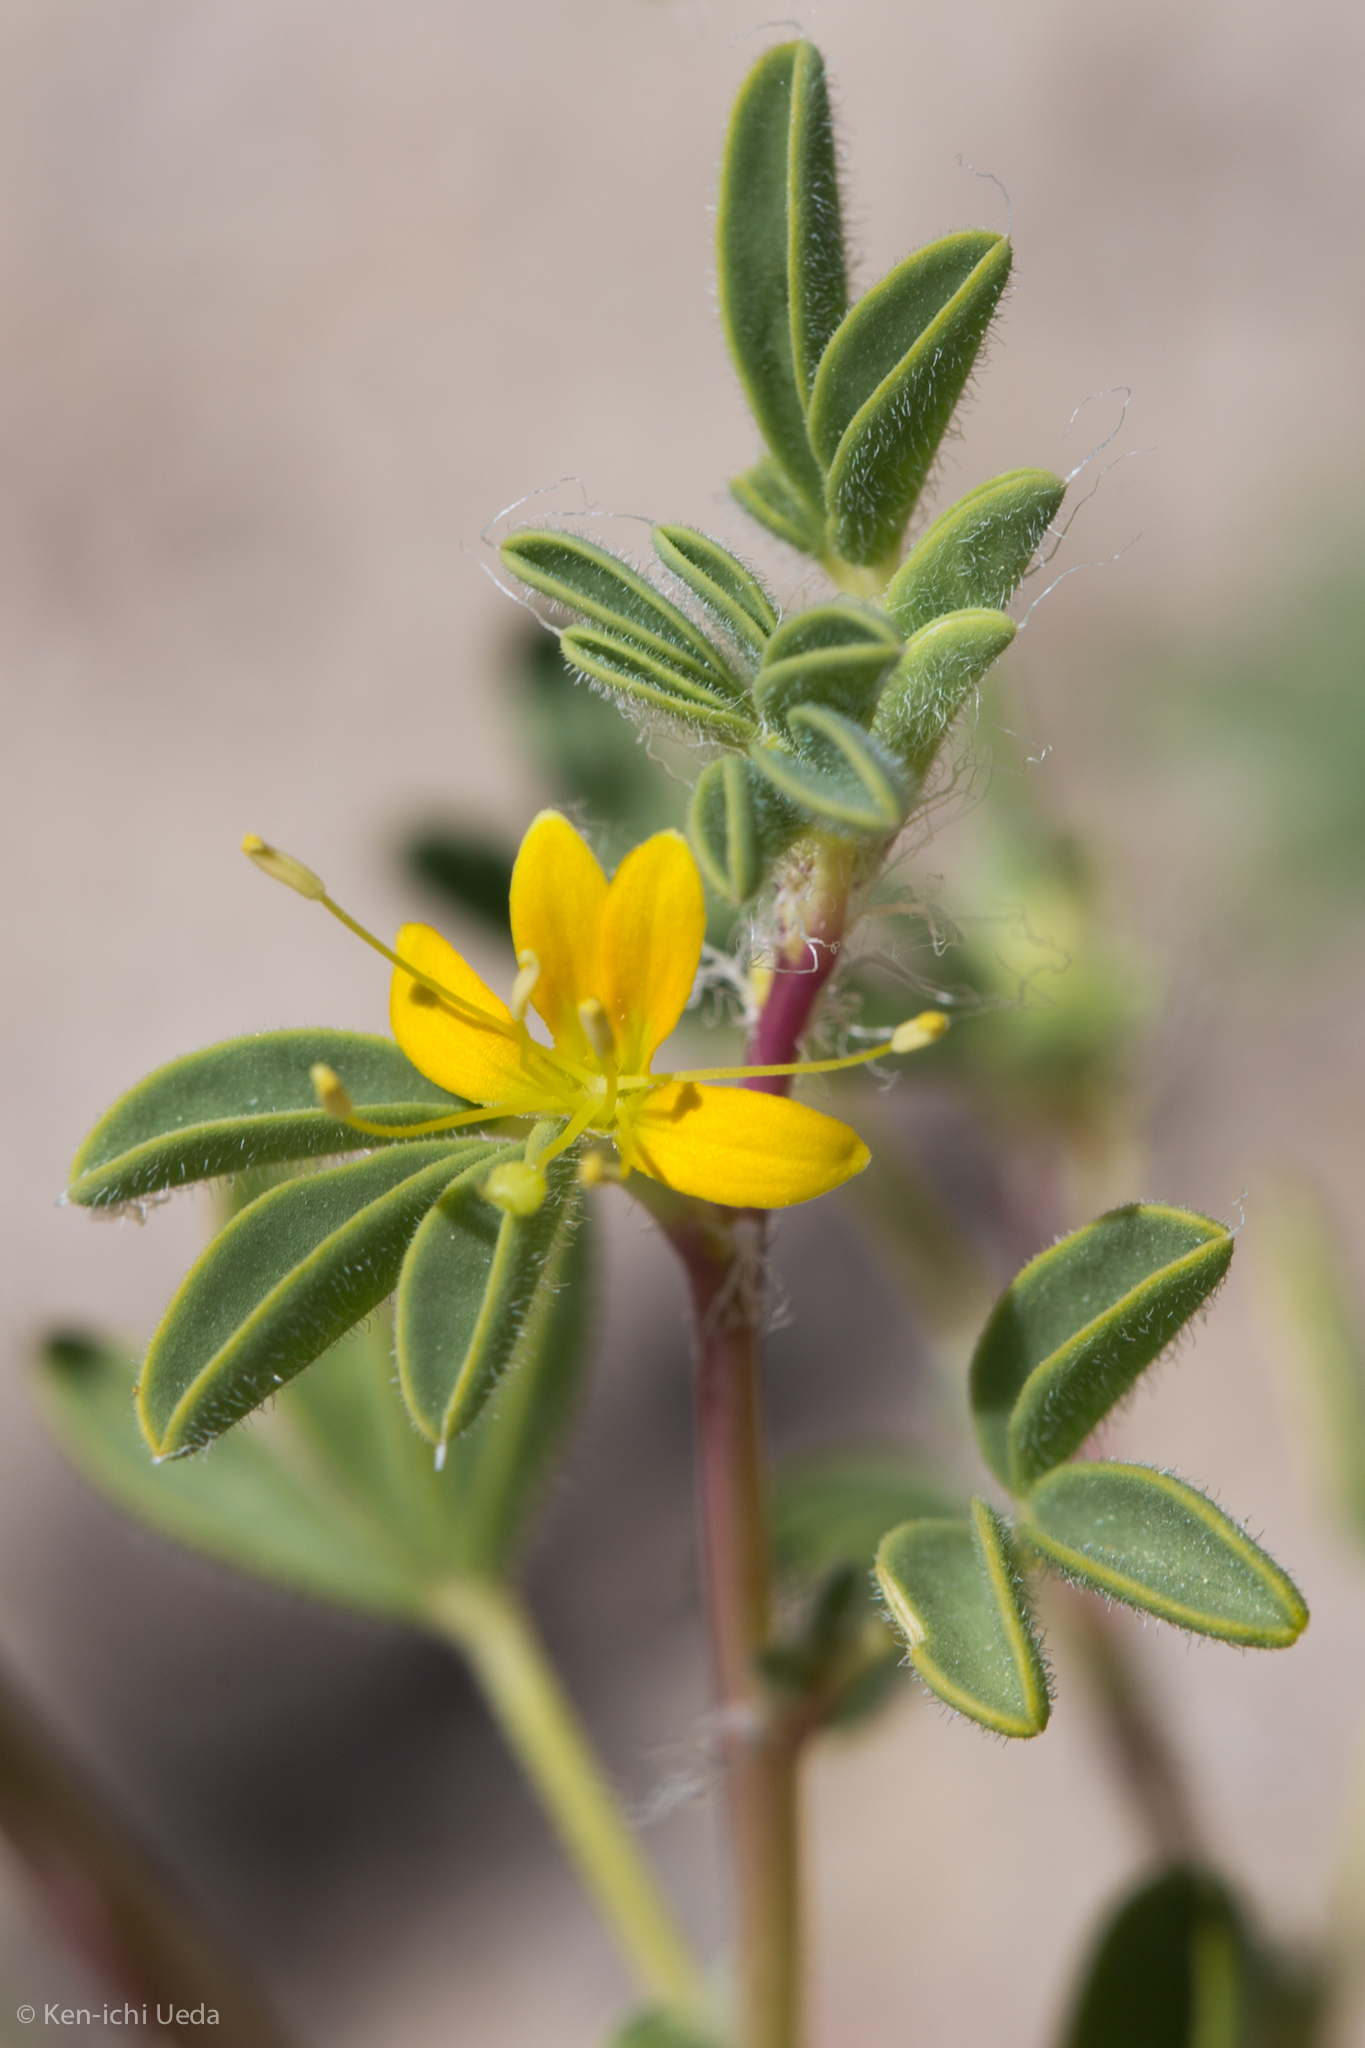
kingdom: Plantae
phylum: Tracheophyta
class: Magnoliopsida
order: Brassicales
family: Cleomaceae
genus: Cleomella
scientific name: Cleomella obtusifolia
